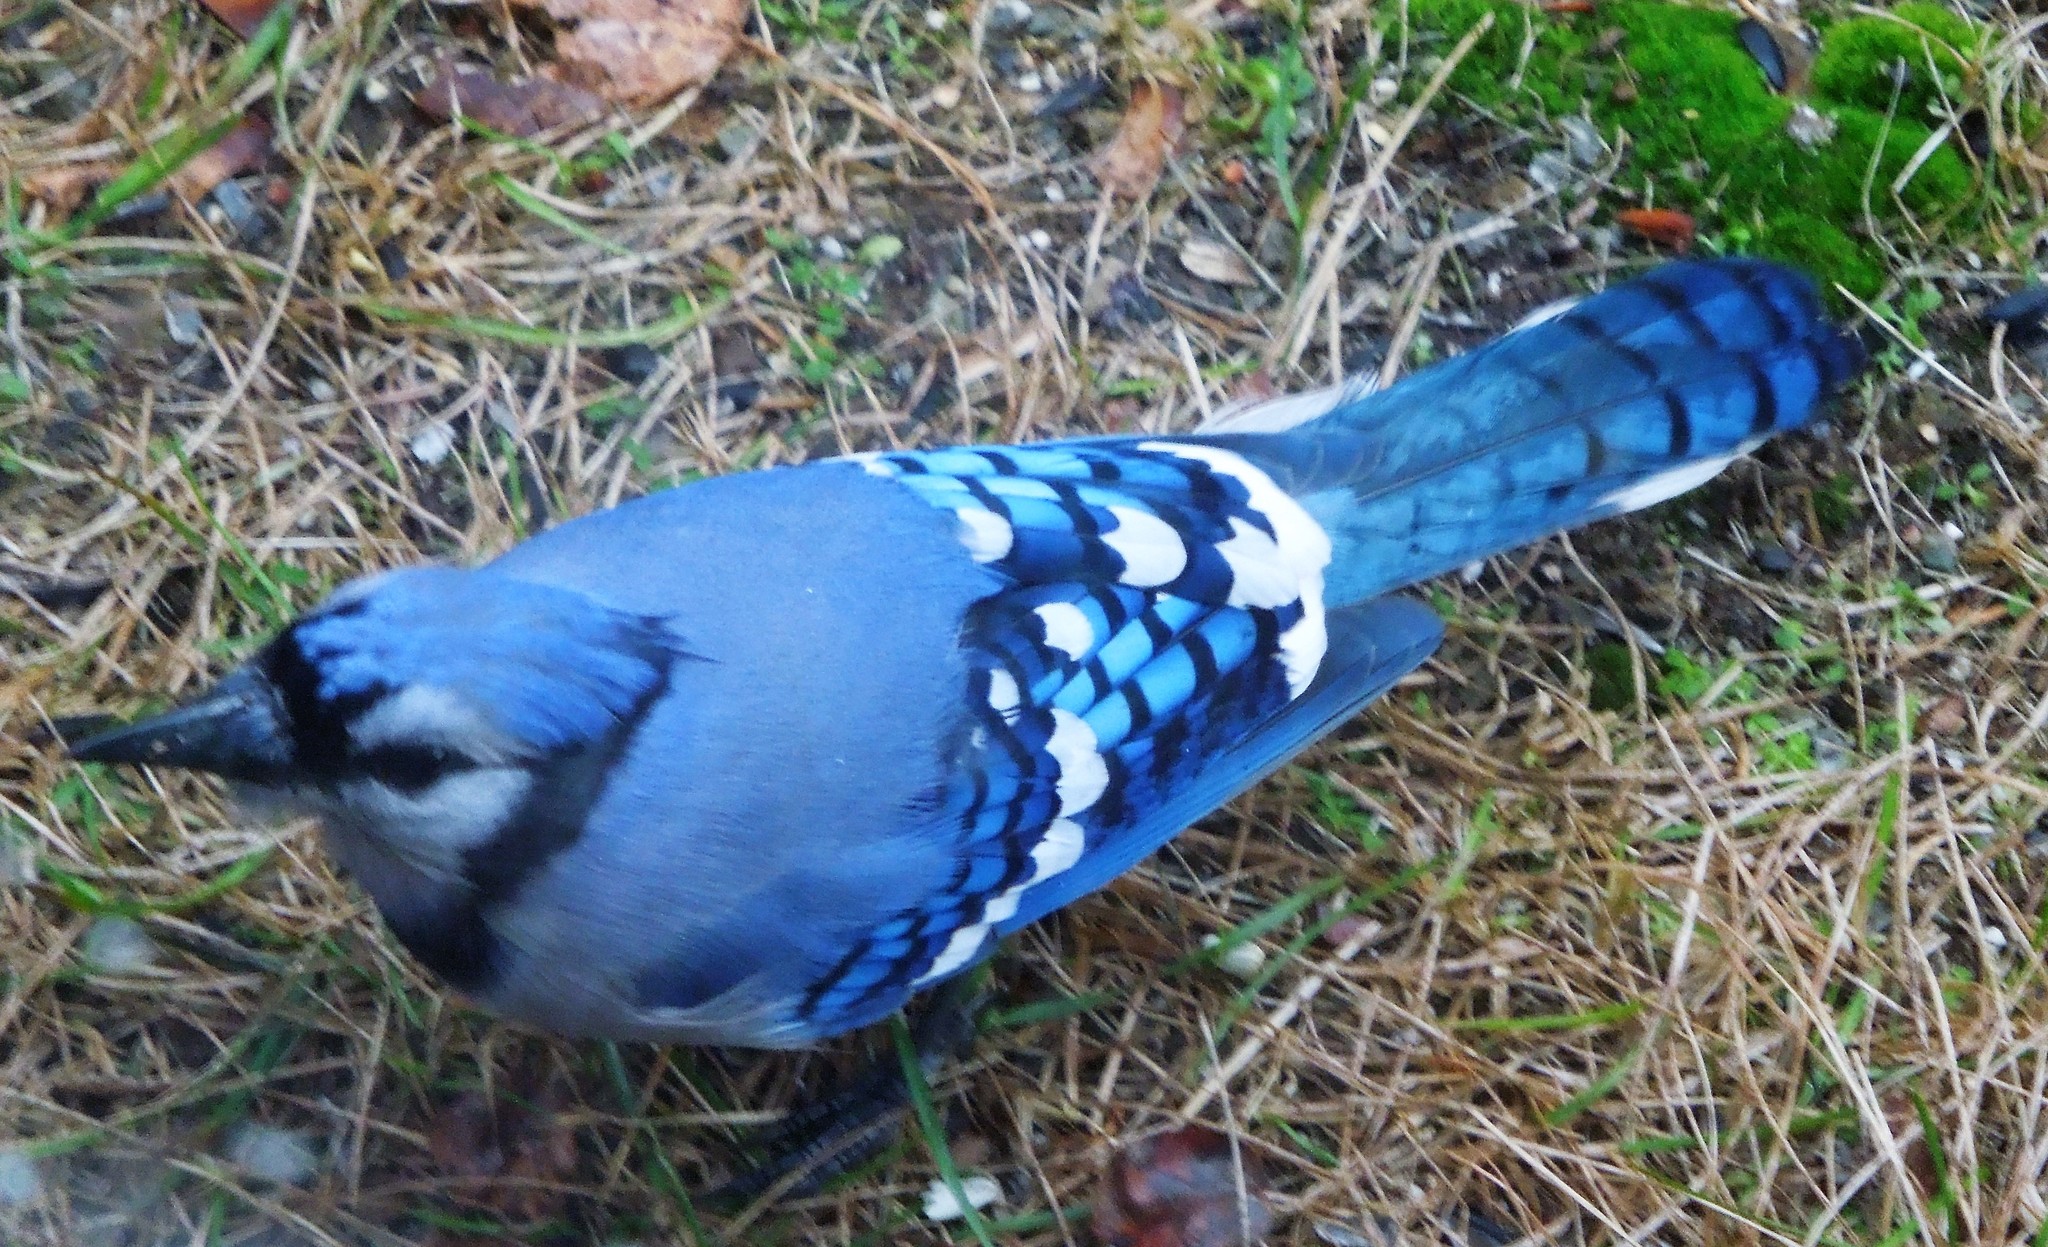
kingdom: Animalia
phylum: Chordata
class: Aves
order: Passeriformes
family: Corvidae
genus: Cyanocitta
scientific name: Cyanocitta cristata
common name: Blue jay
